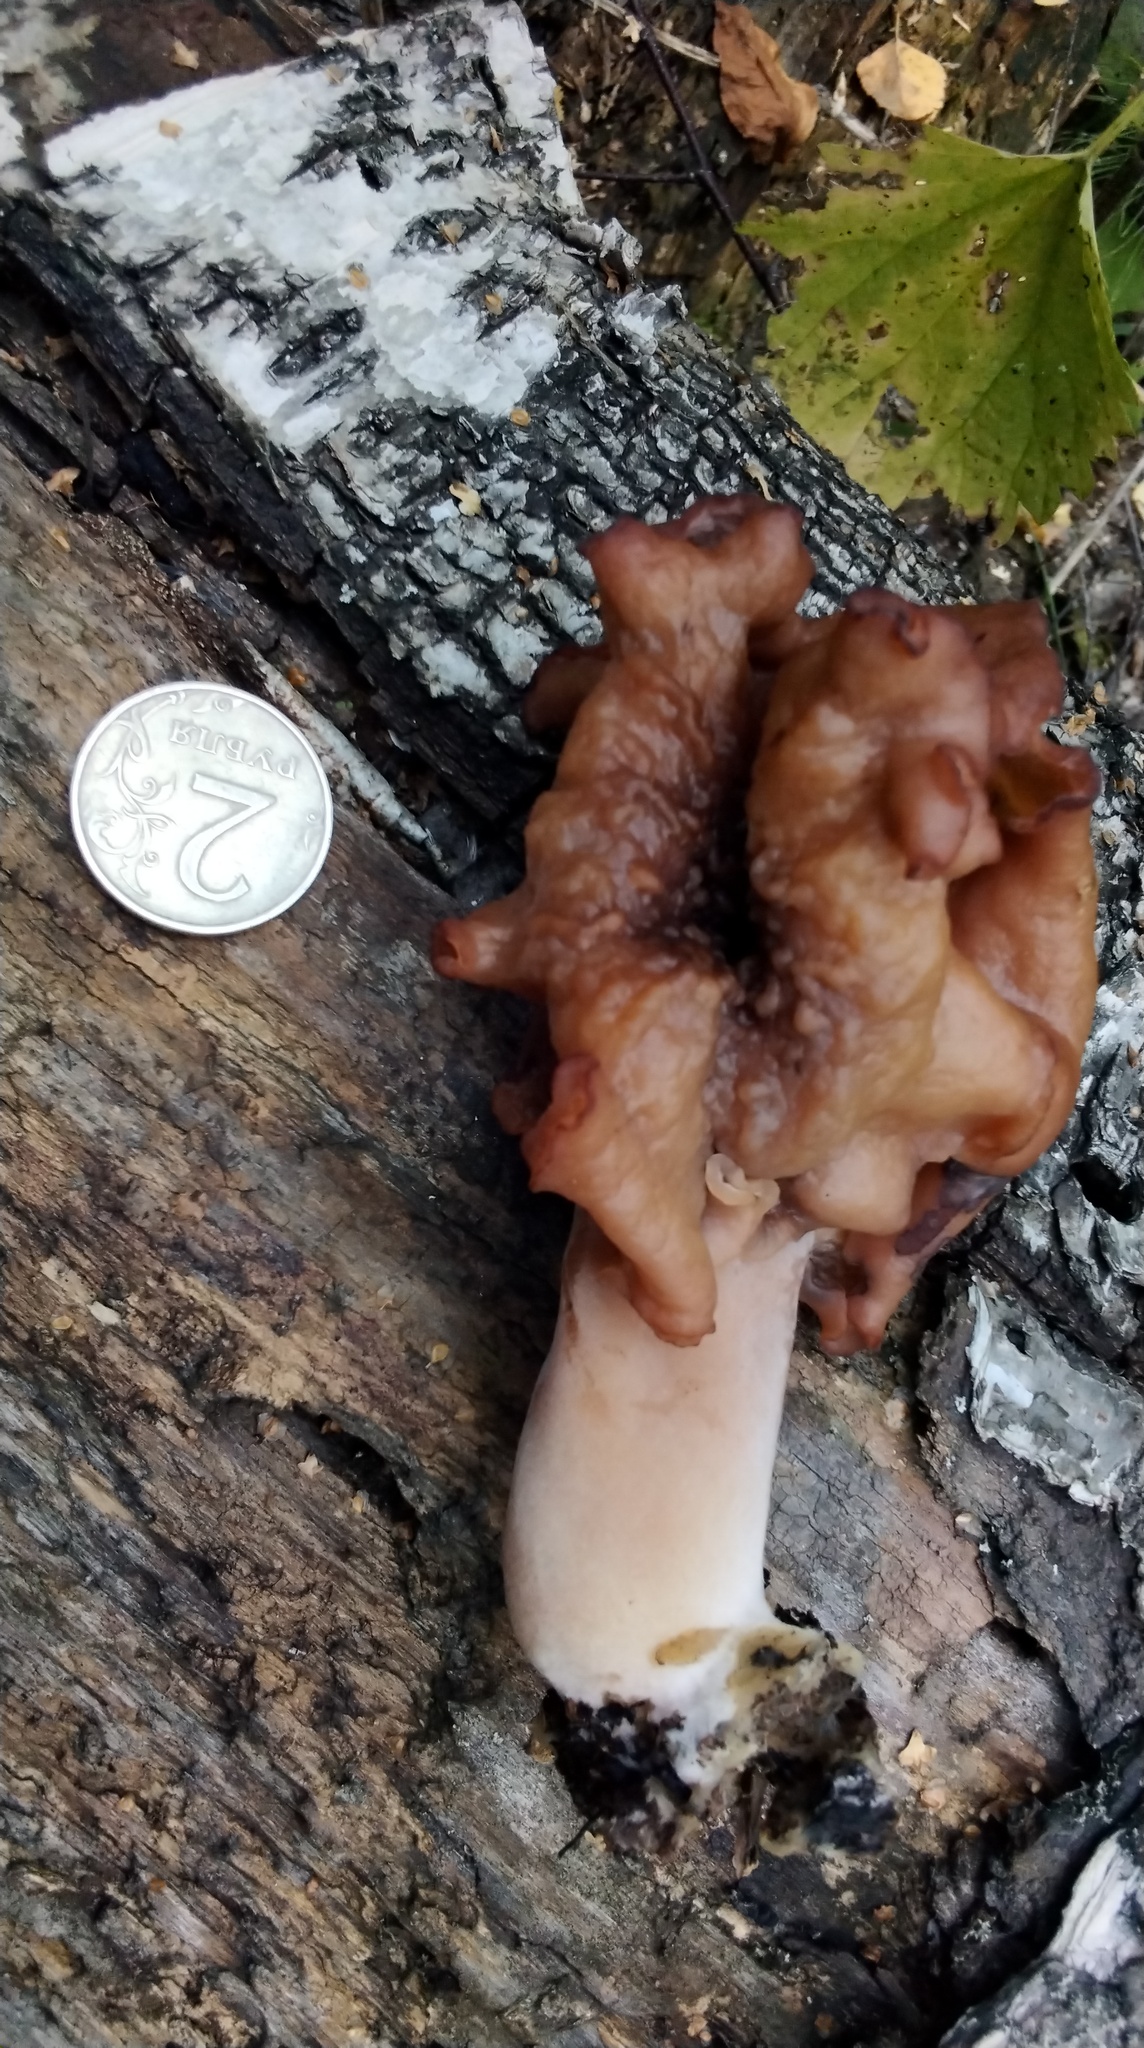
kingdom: Fungi
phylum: Ascomycota
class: Pezizomycetes
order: Pezizales
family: Discinaceae
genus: Gyromitra
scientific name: Gyromitra infula
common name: Pouched false morel
